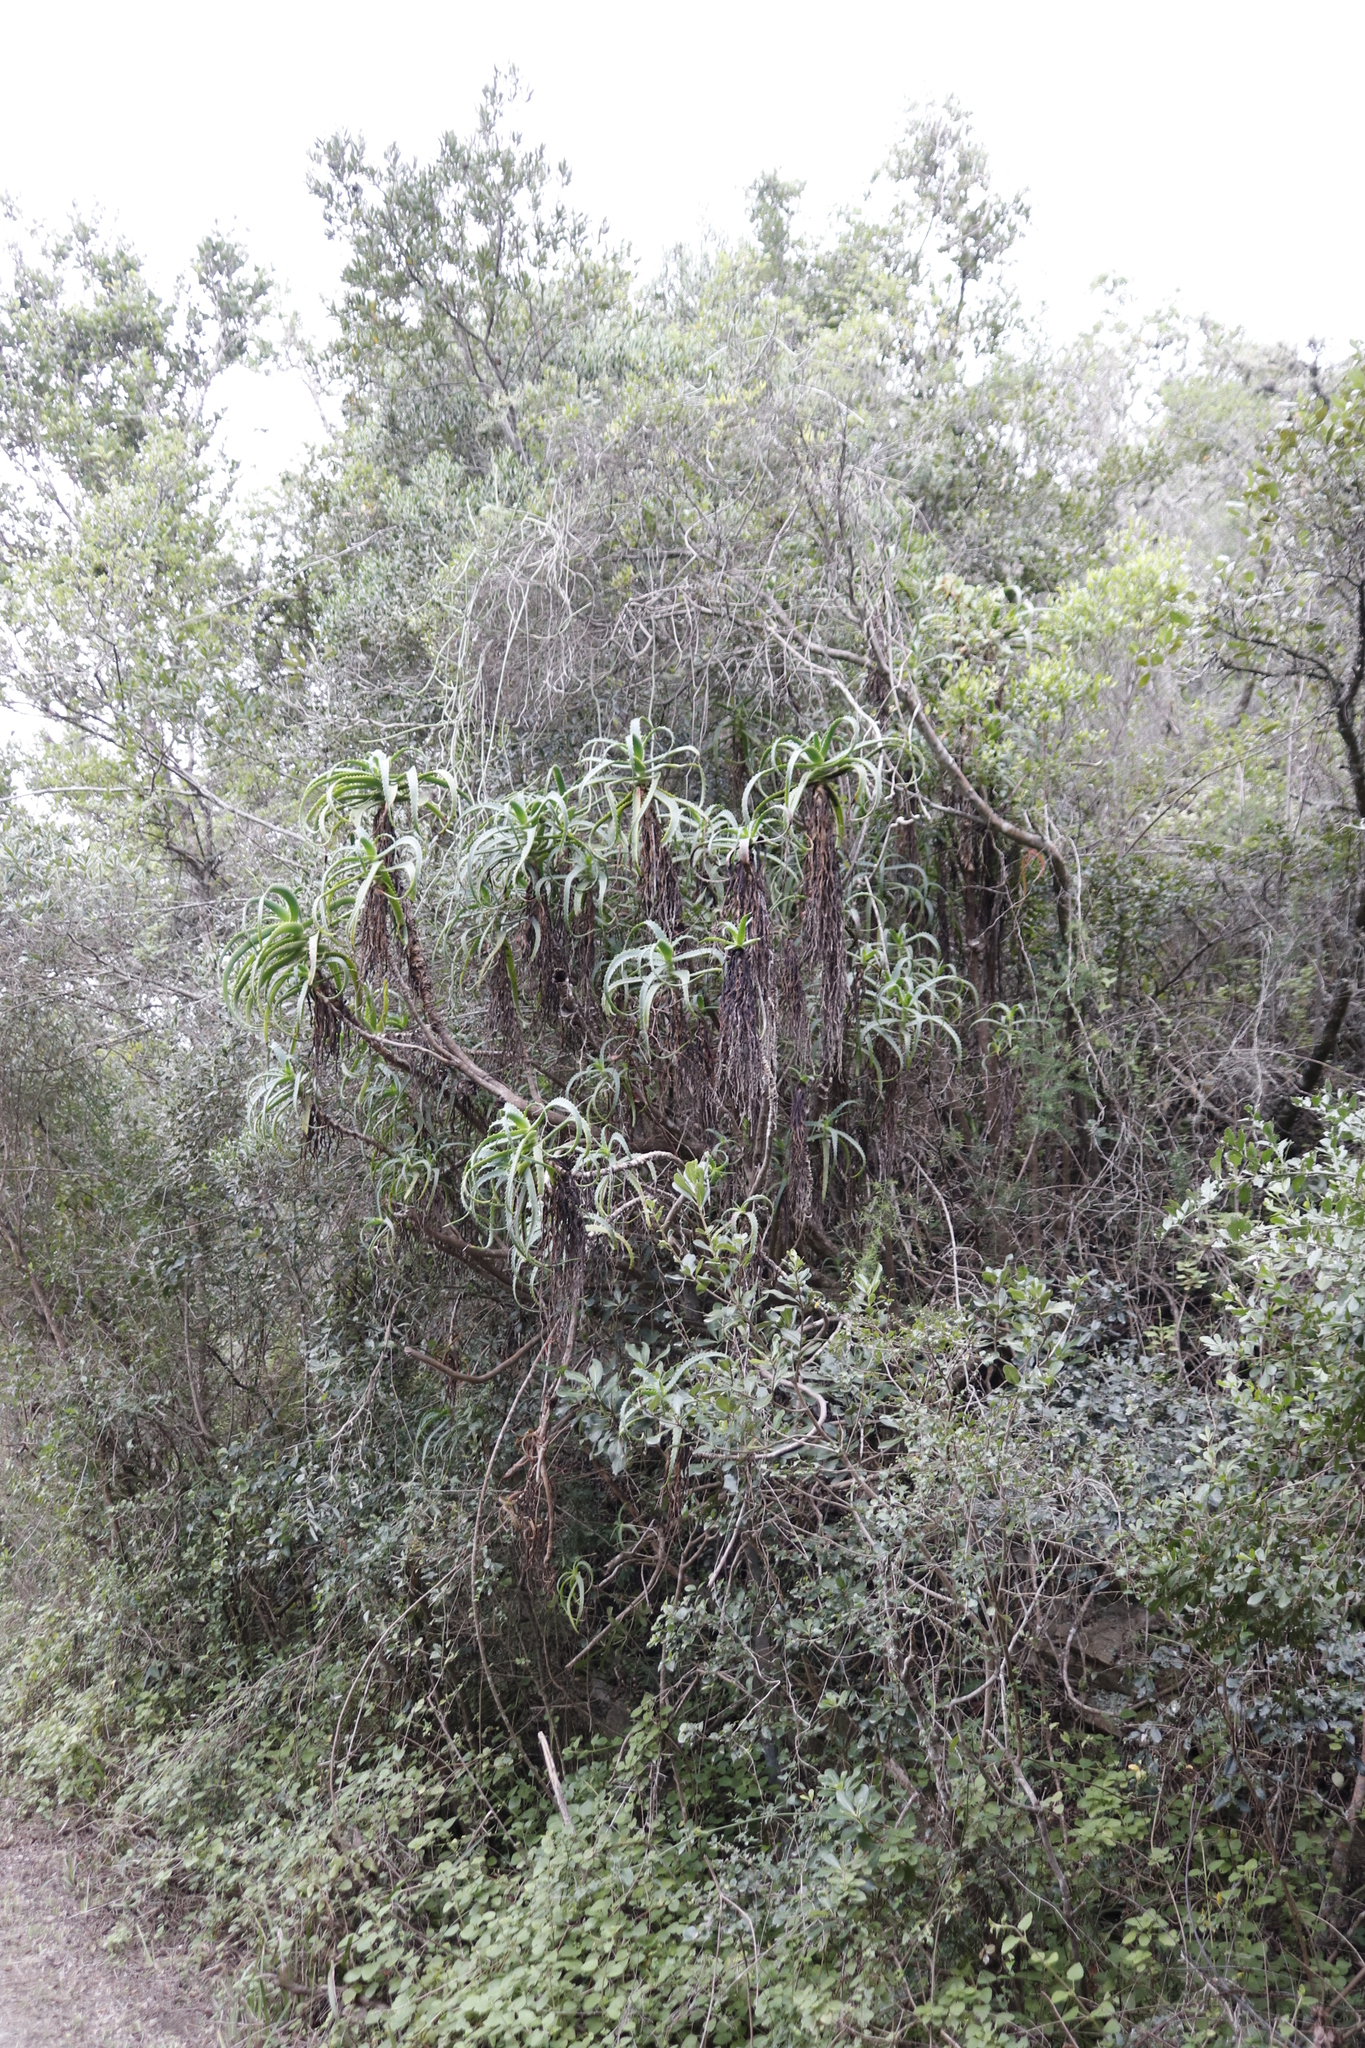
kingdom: Plantae
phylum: Tracheophyta
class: Liliopsida
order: Asparagales
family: Asphodelaceae
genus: Aloe
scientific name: Aloe arborescens
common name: Candelabra aloe
